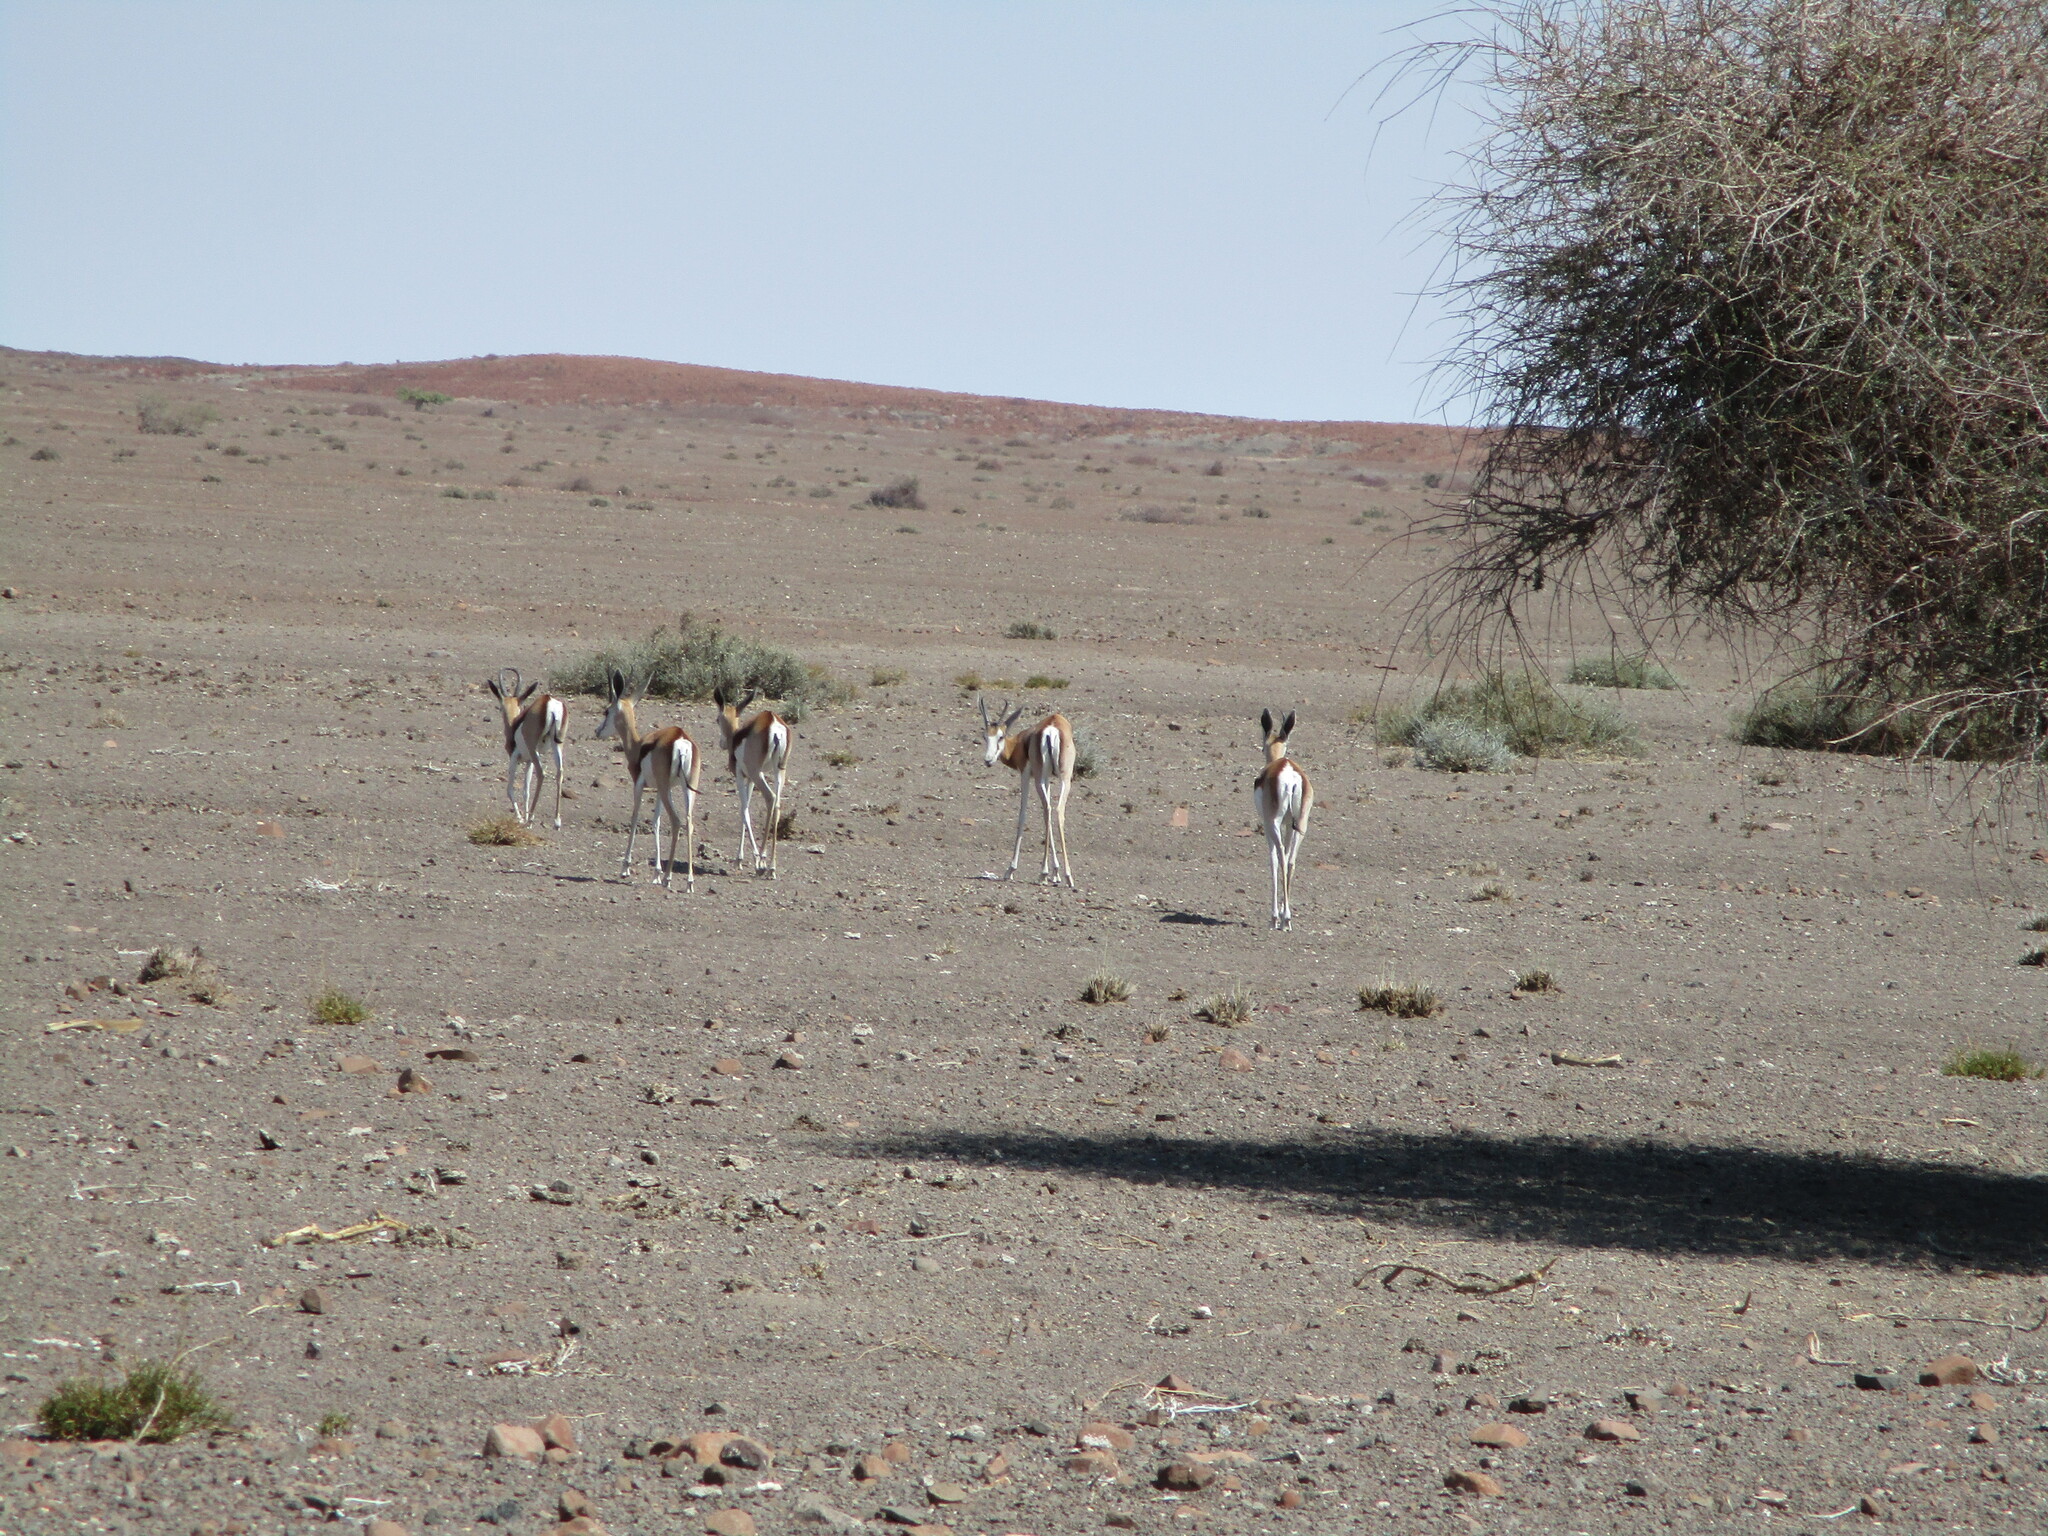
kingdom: Animalia
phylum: Chordata
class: Mammalia
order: Artiodactyla
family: Bovidae
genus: Antidorcas
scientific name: Antidorcas marsupialis
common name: Springbok
